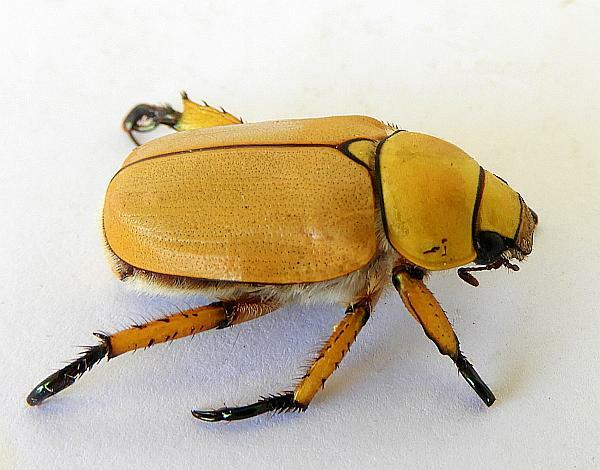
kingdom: Animalia
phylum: Arthropoda
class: Insecta
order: Coleoptera
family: Scarabaeidae
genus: Cotalpa
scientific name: Cotalpa consobrina
